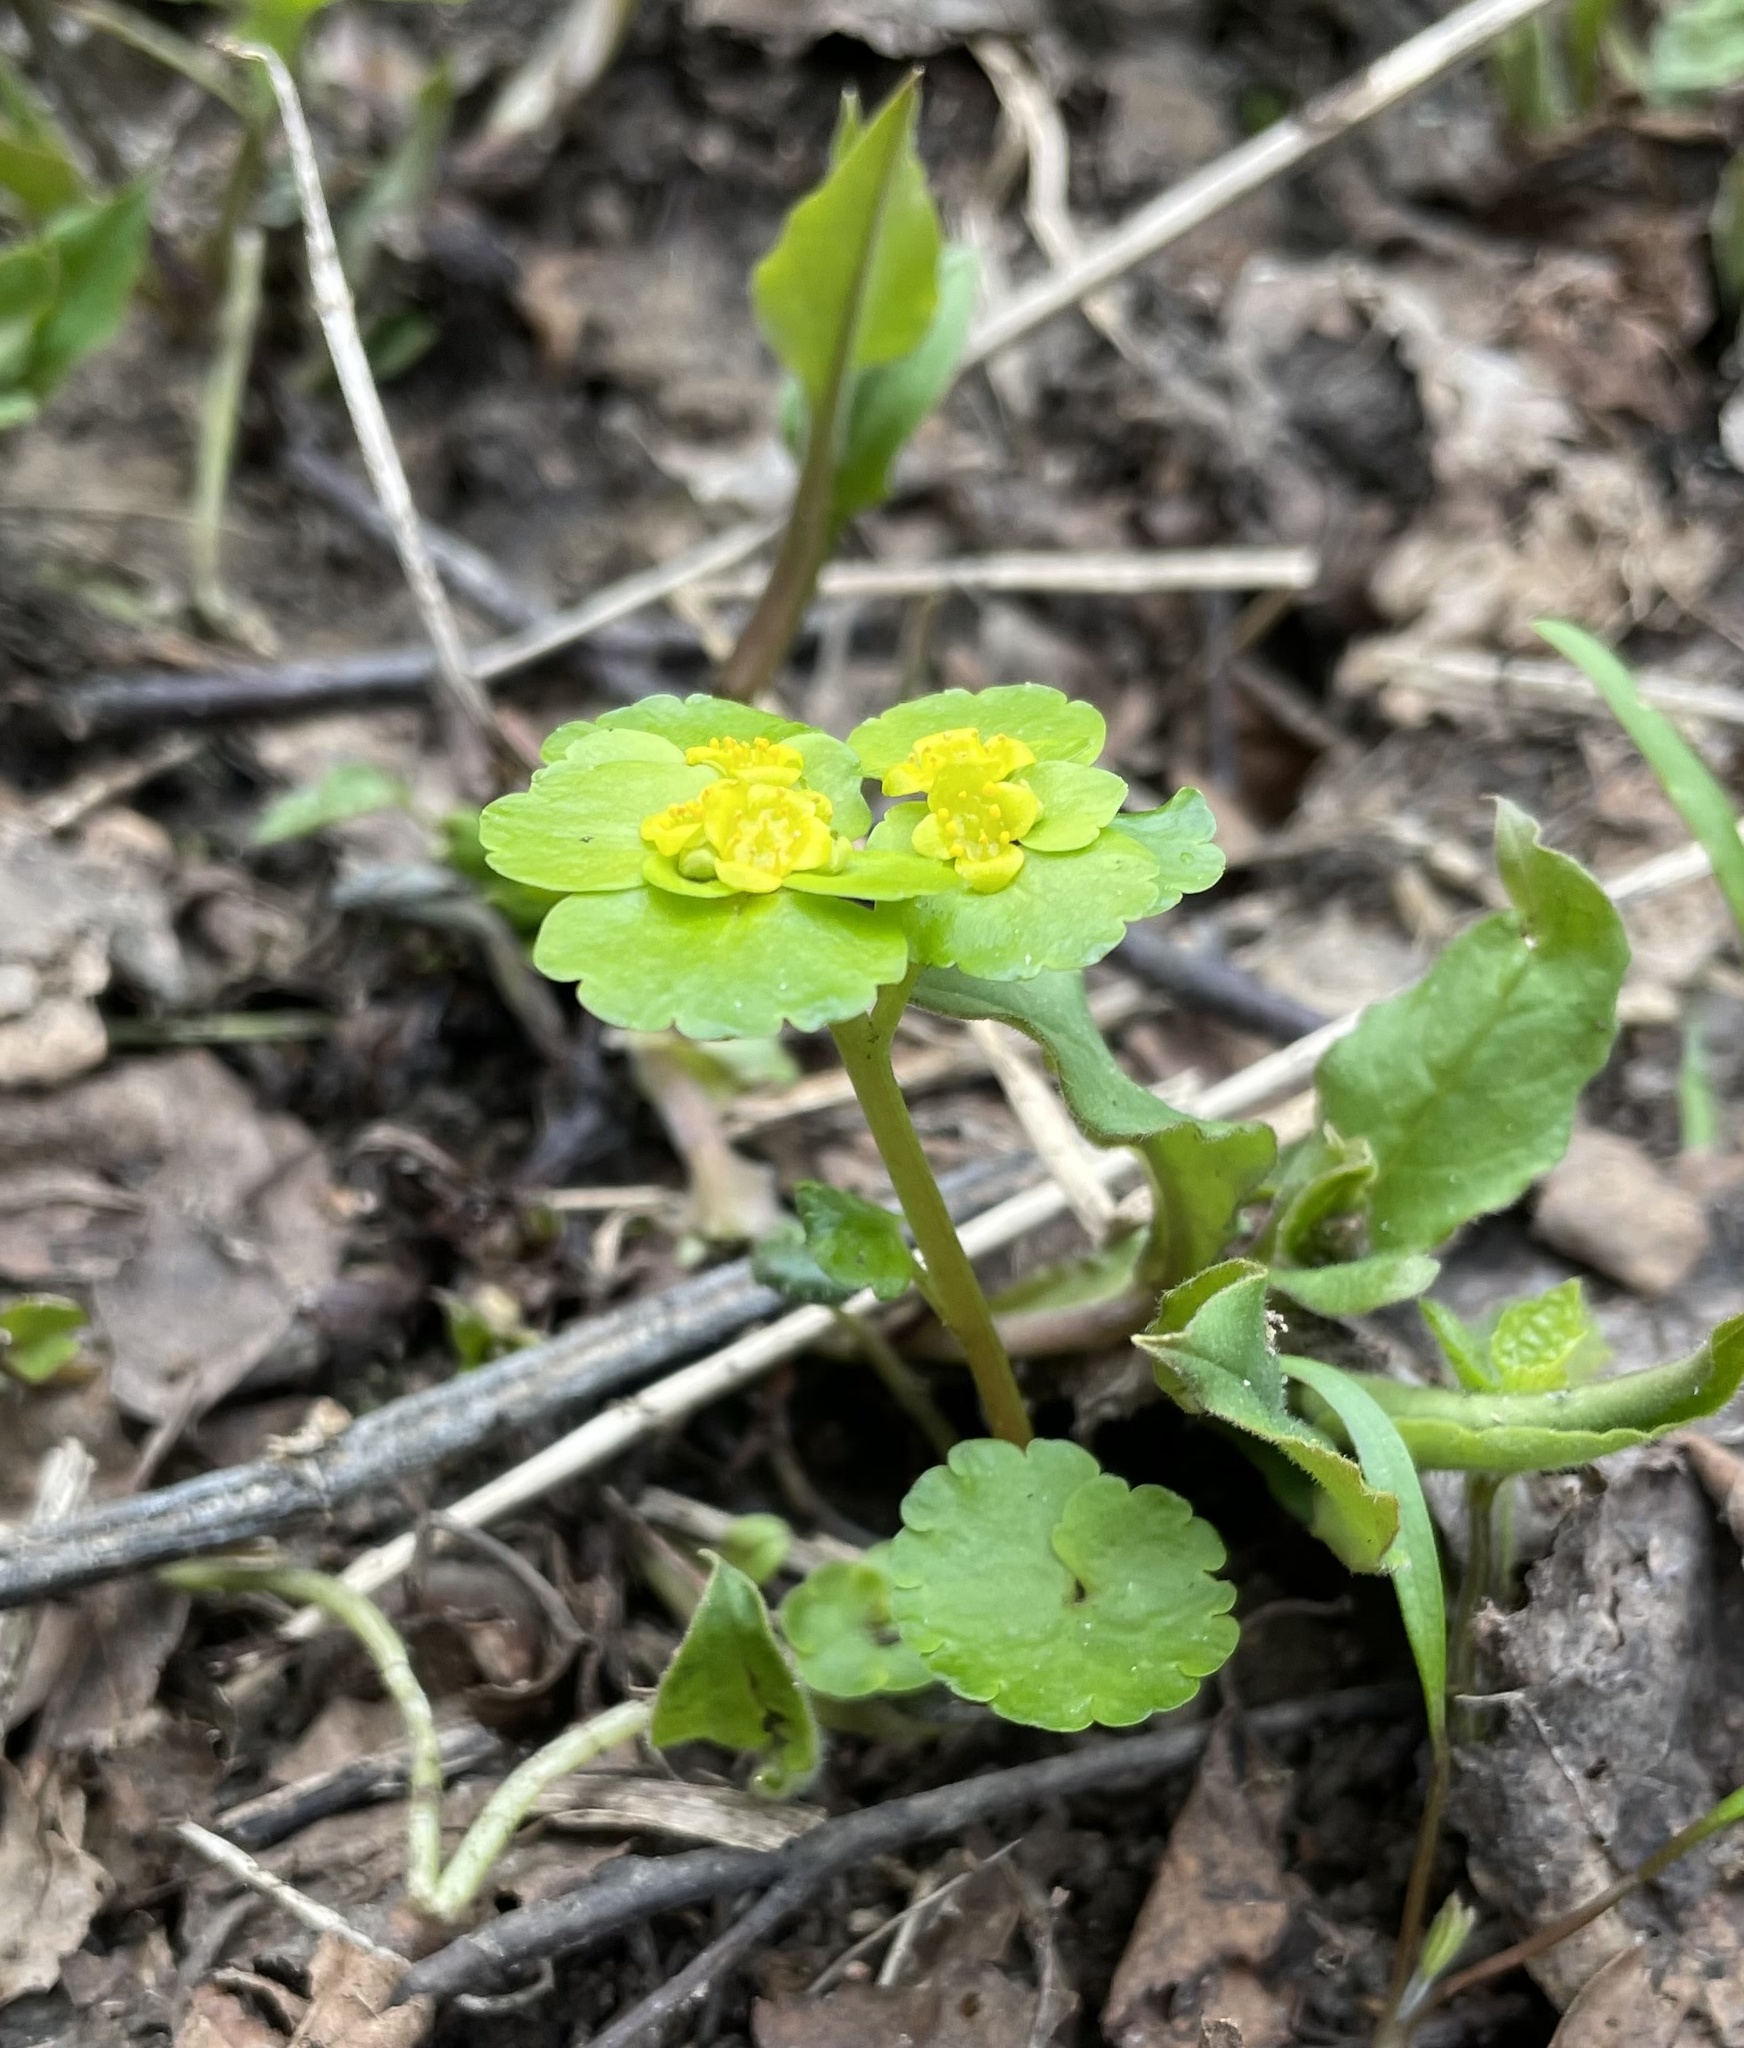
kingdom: Plantae
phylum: Tracheophyta
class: Magnoliopsida
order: Saxifragales
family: Saxifragaceae
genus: Chrysosplenium
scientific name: Chrysosplenium alternifolium
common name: Alternate-leaved golden-saxifrage
